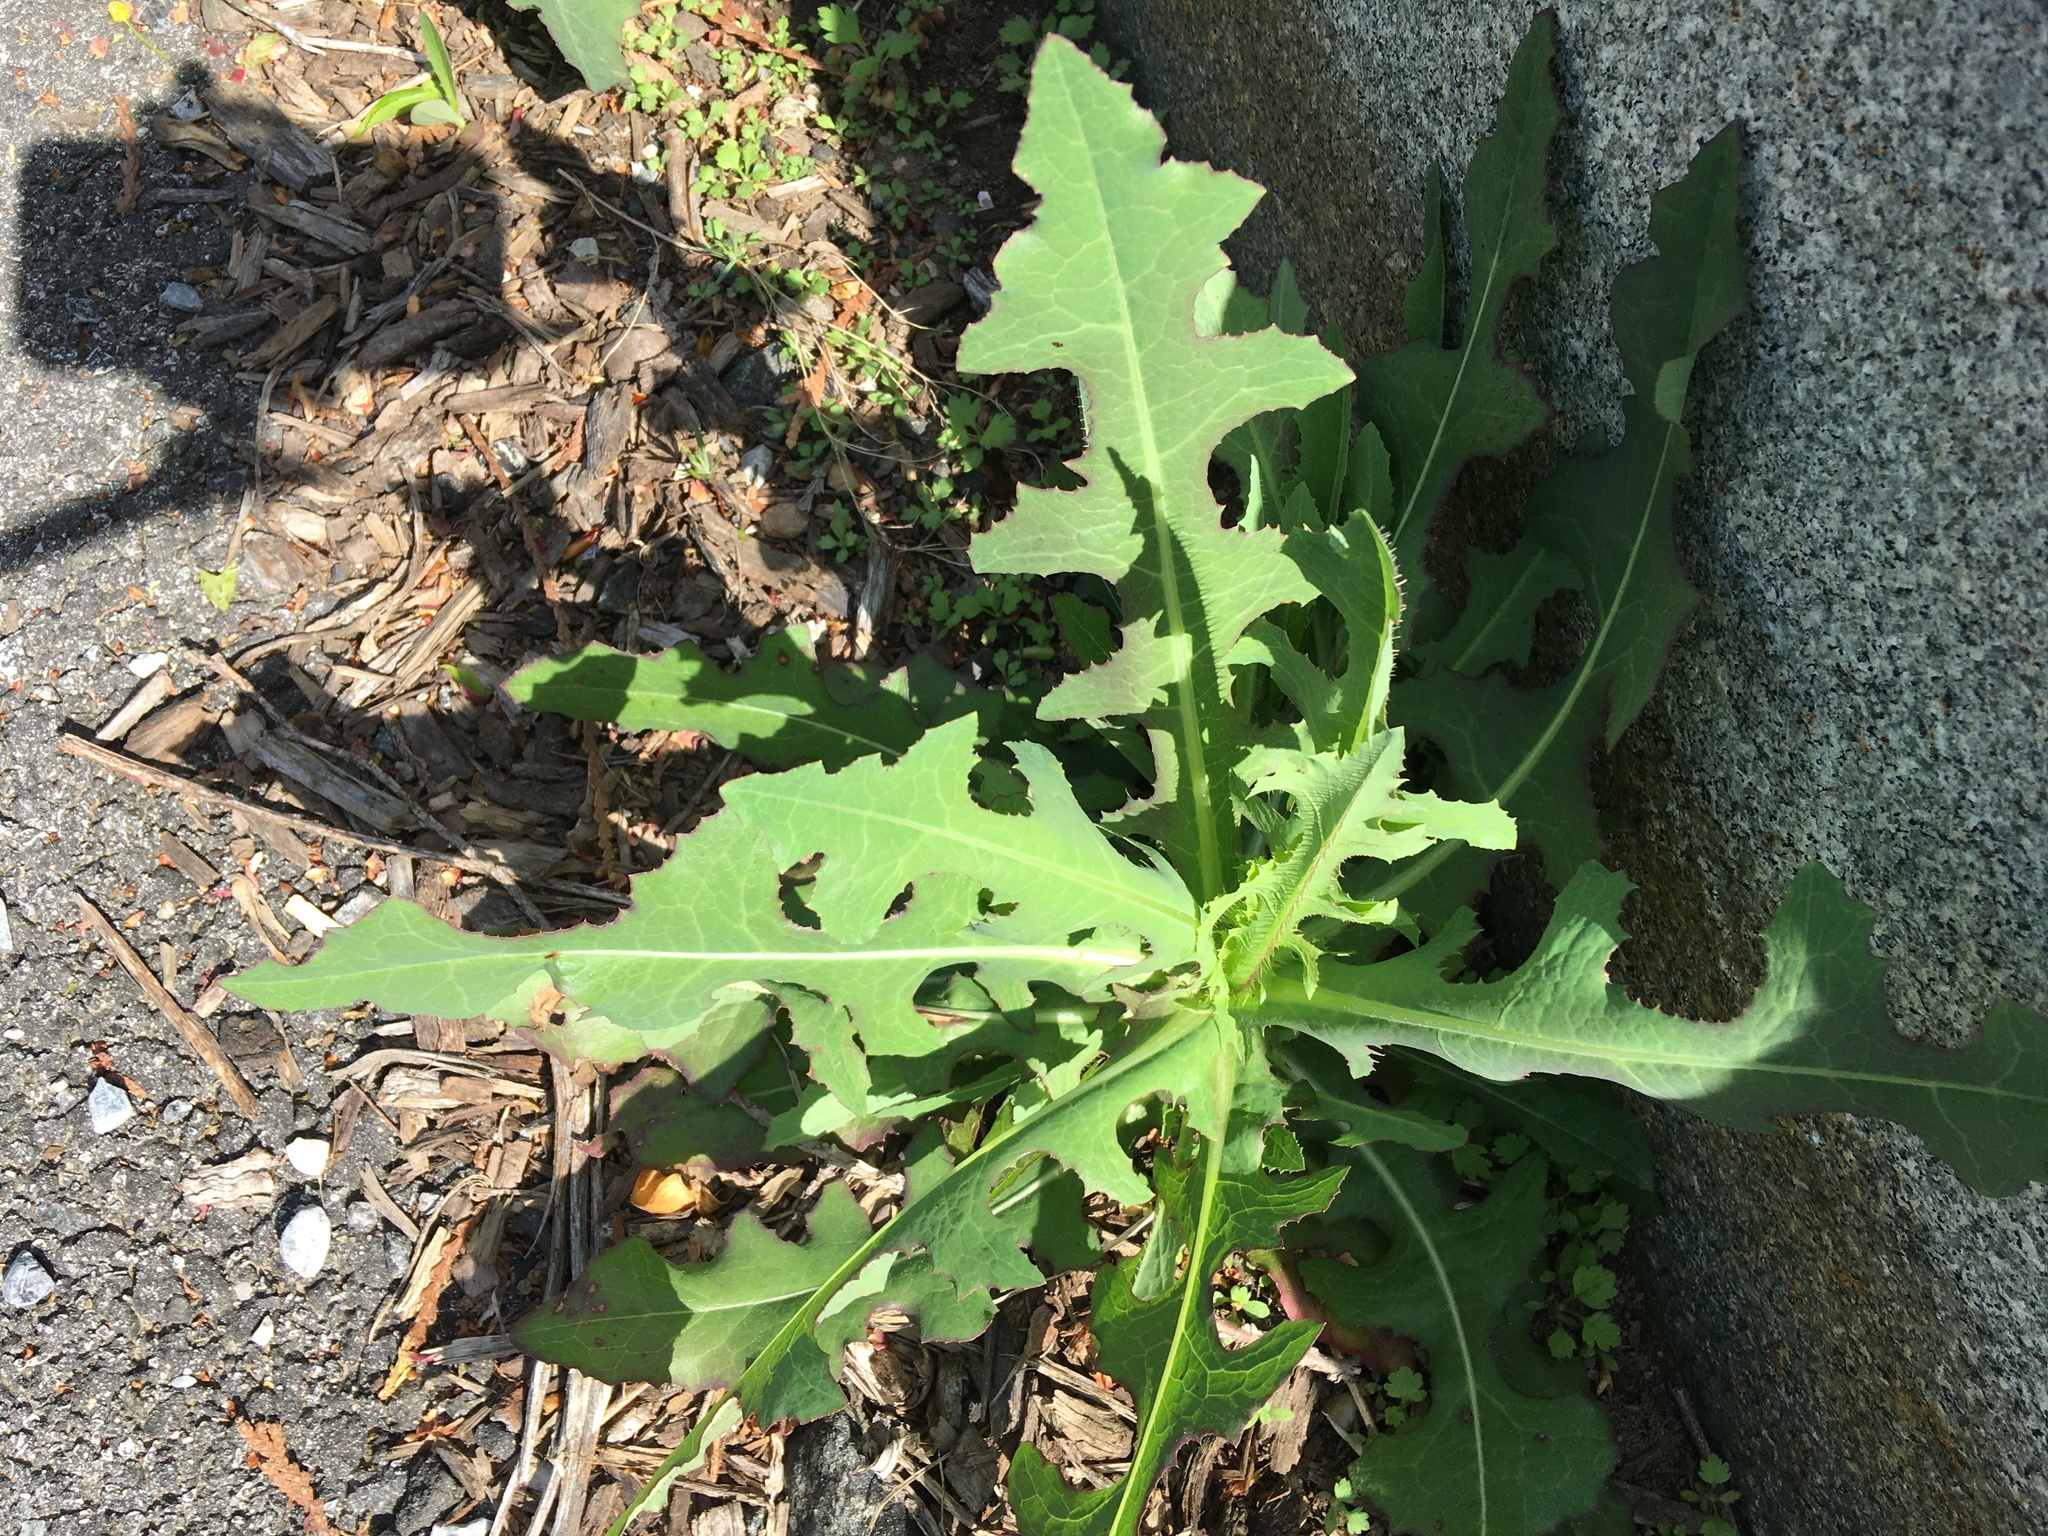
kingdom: Plantae
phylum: Tracheophyta
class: Magnoliopsida
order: Asterales
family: Asteraceae
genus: Lactuca
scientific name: Lactuca serriola
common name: Prickly lettuce
